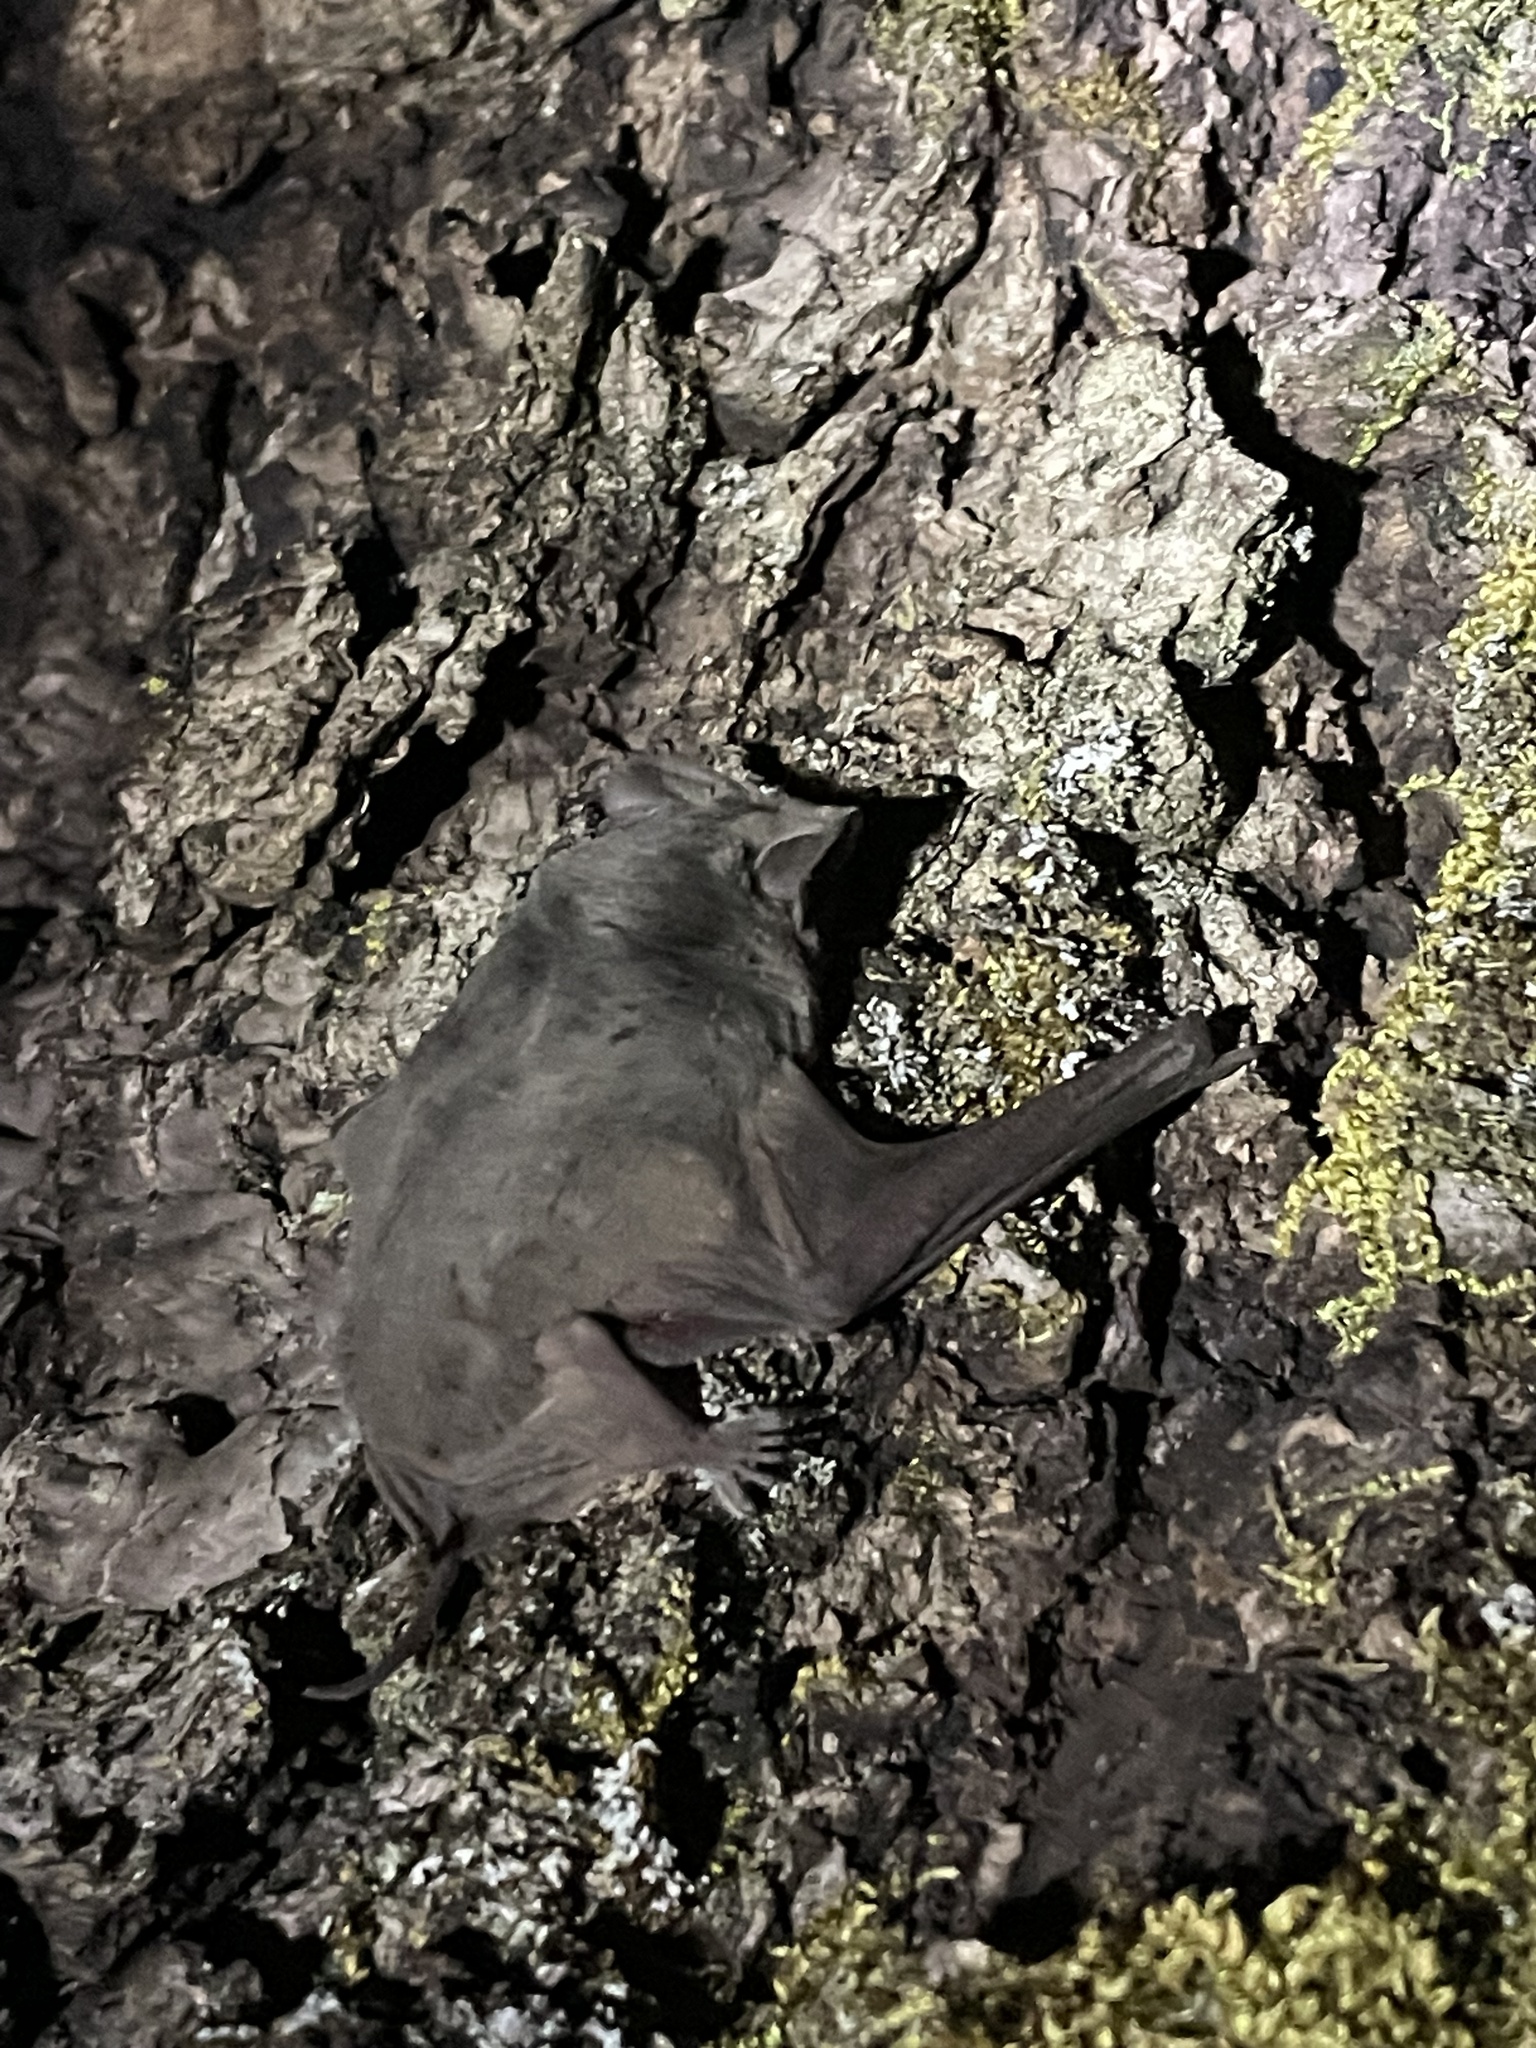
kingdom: Animalia
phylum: Chordata
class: Mammalia
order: Chiroptera
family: Molossidae
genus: Tadarida
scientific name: Tadarida brasiliensis
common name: Mexican free-tailed bat
